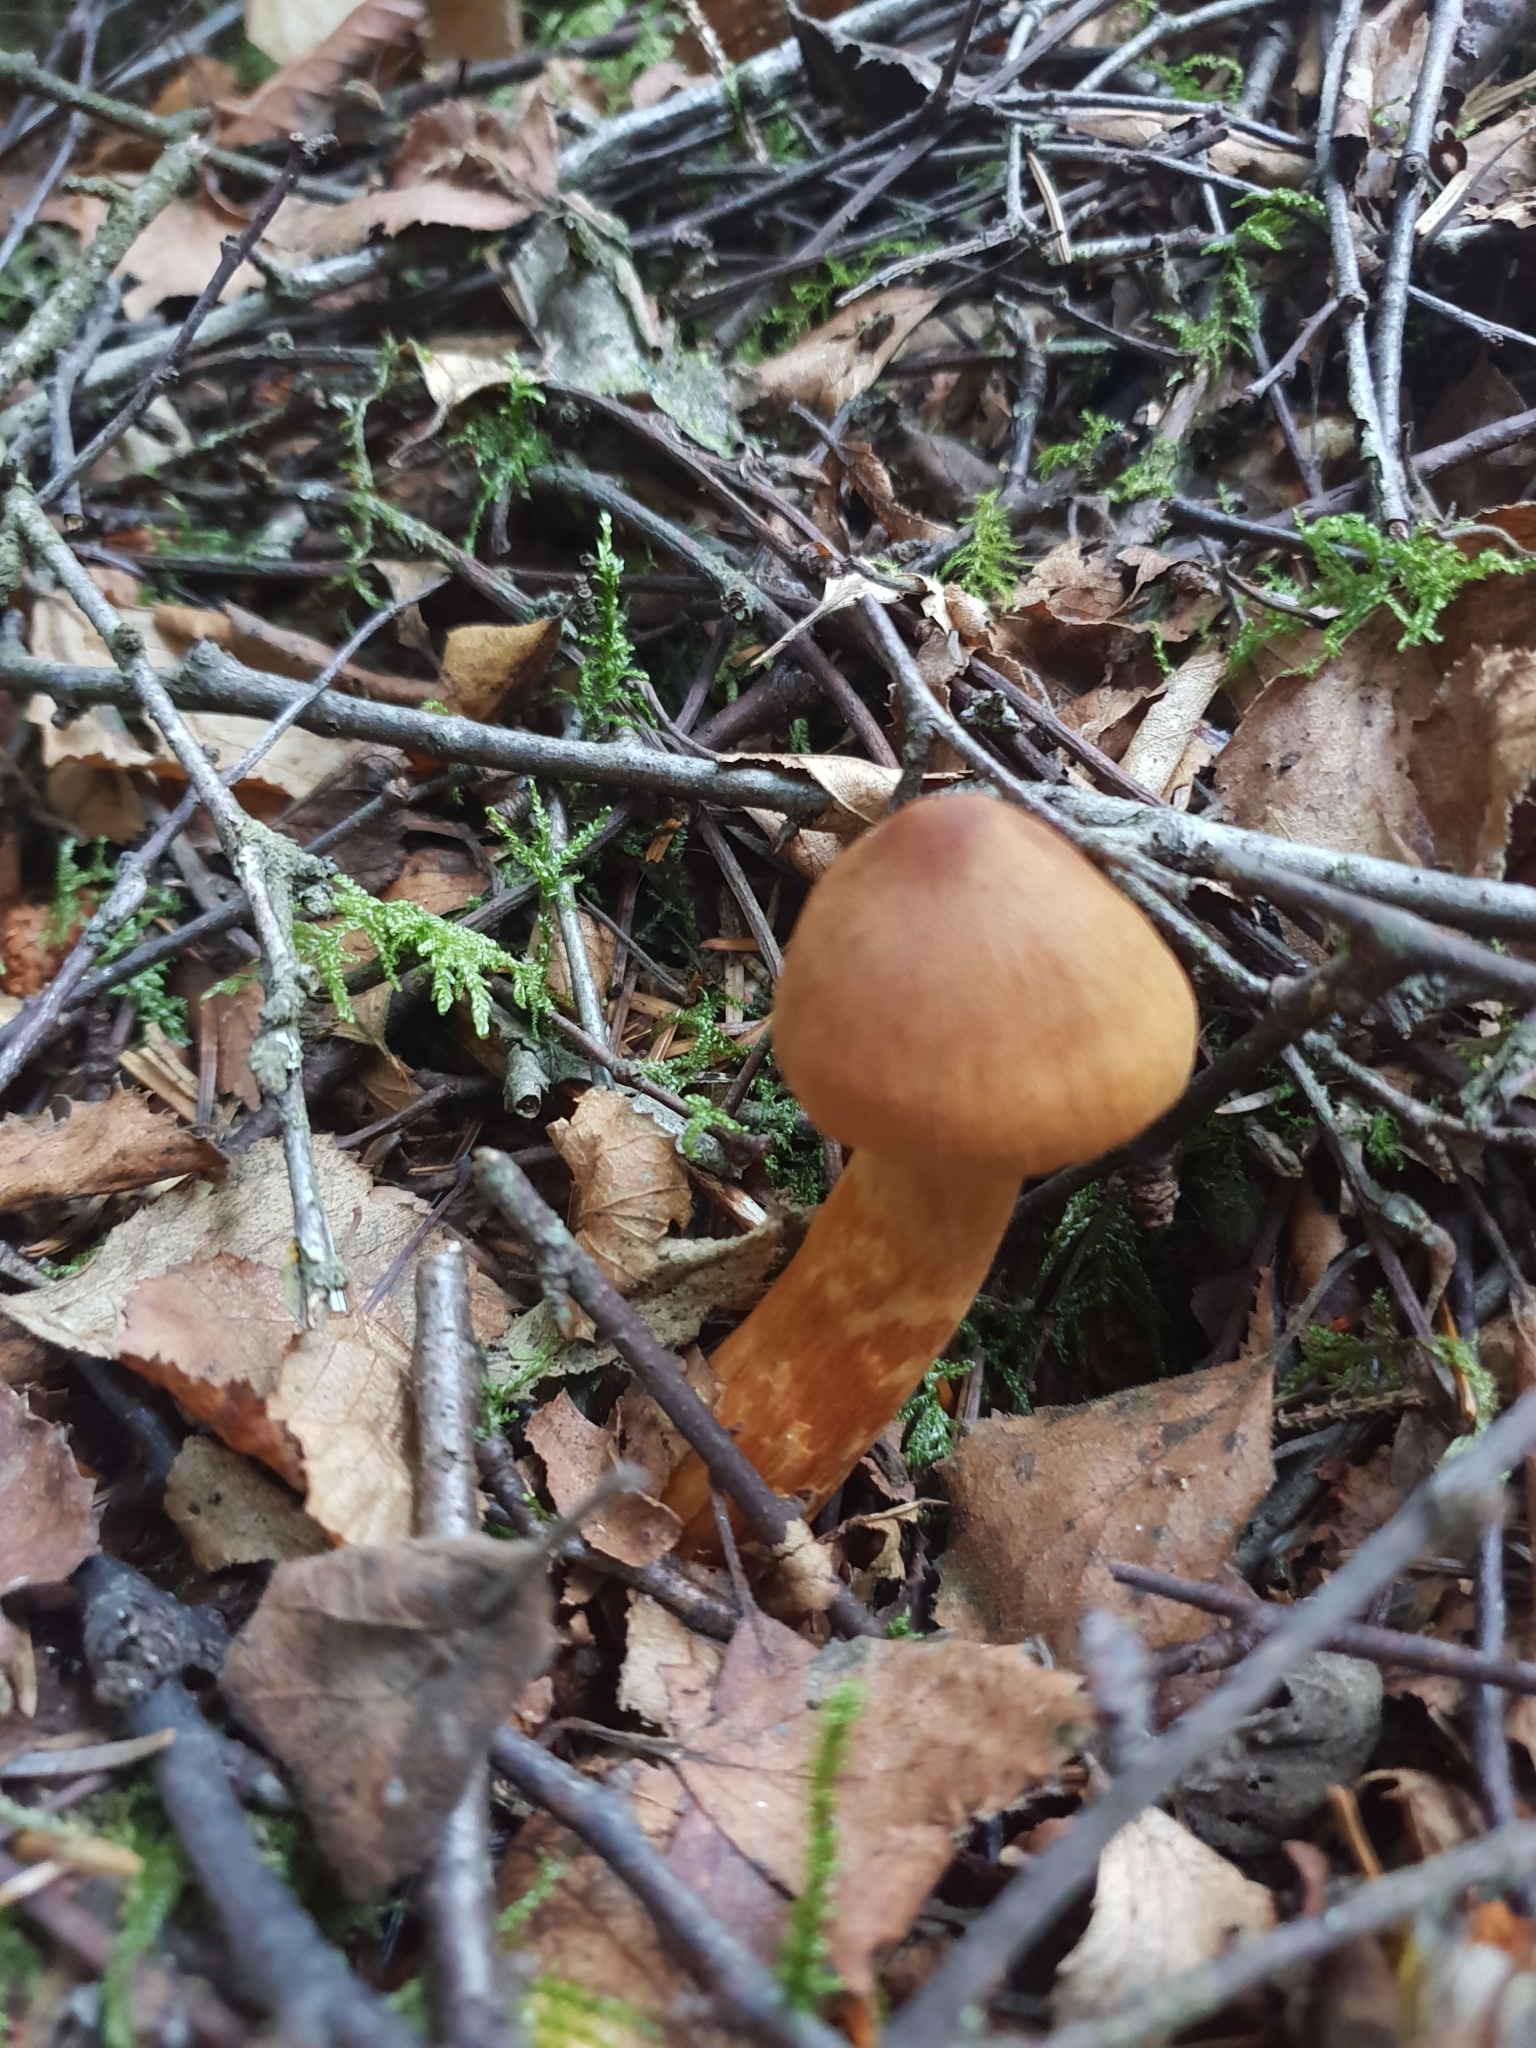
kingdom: Fungi
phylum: Basidiomycota
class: Agaricomycetes
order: Agaricales
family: Cortinariaceae
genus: Cortinarius
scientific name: Cortinarius rubellus
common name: Deadly webcap
